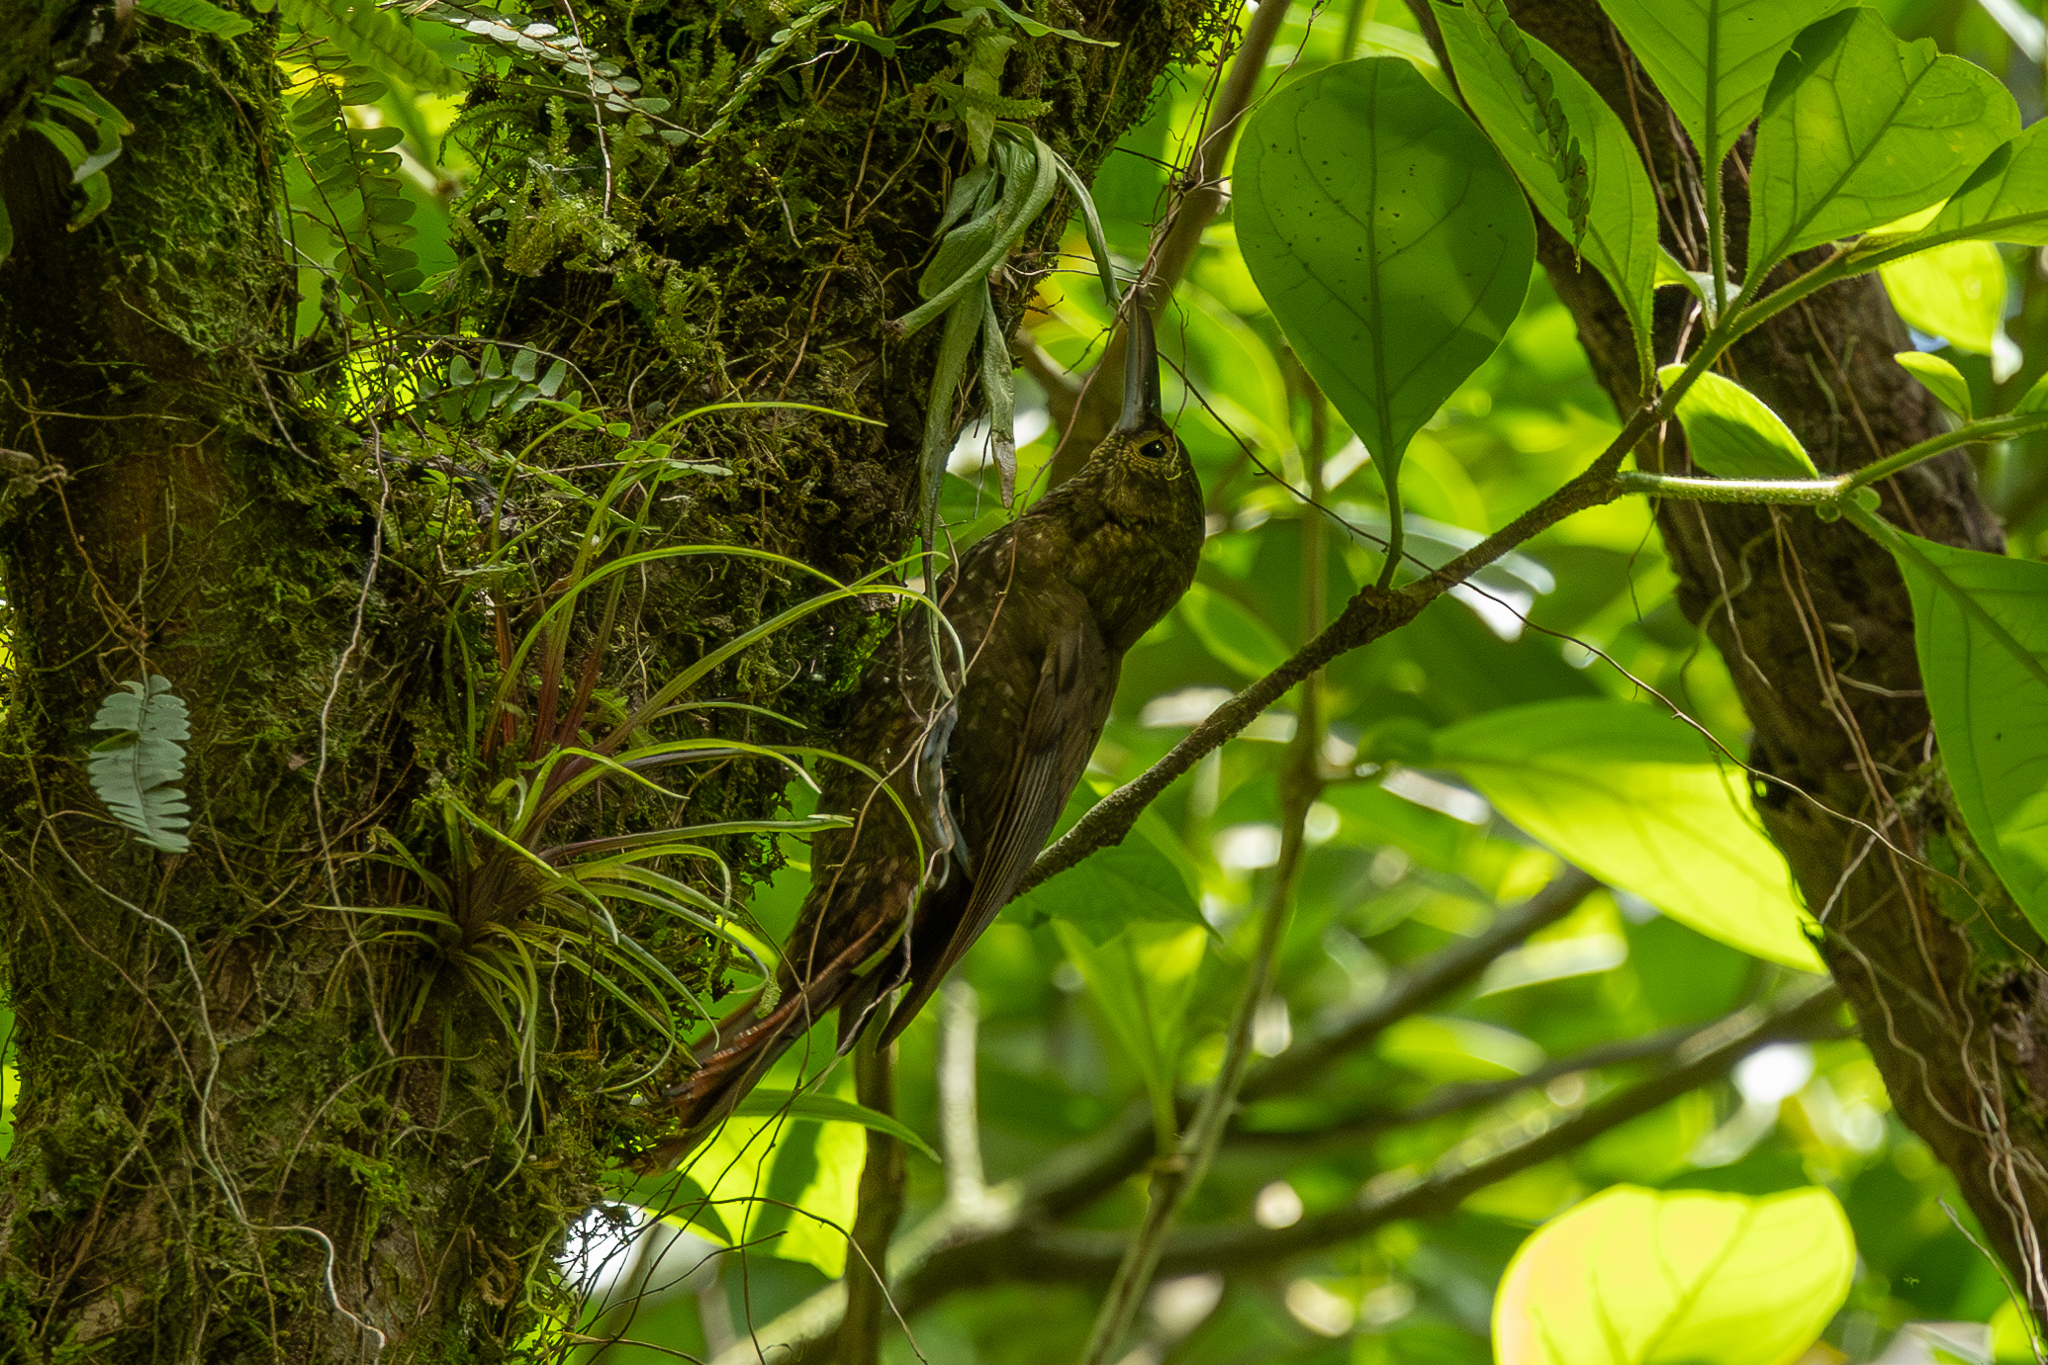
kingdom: Animalia
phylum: Chordata
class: Aves
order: Passeriformes
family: Furnariidae
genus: Xiphorhynchus
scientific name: Xiphorhynchus erythropygius
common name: Spotted woodcreeper
